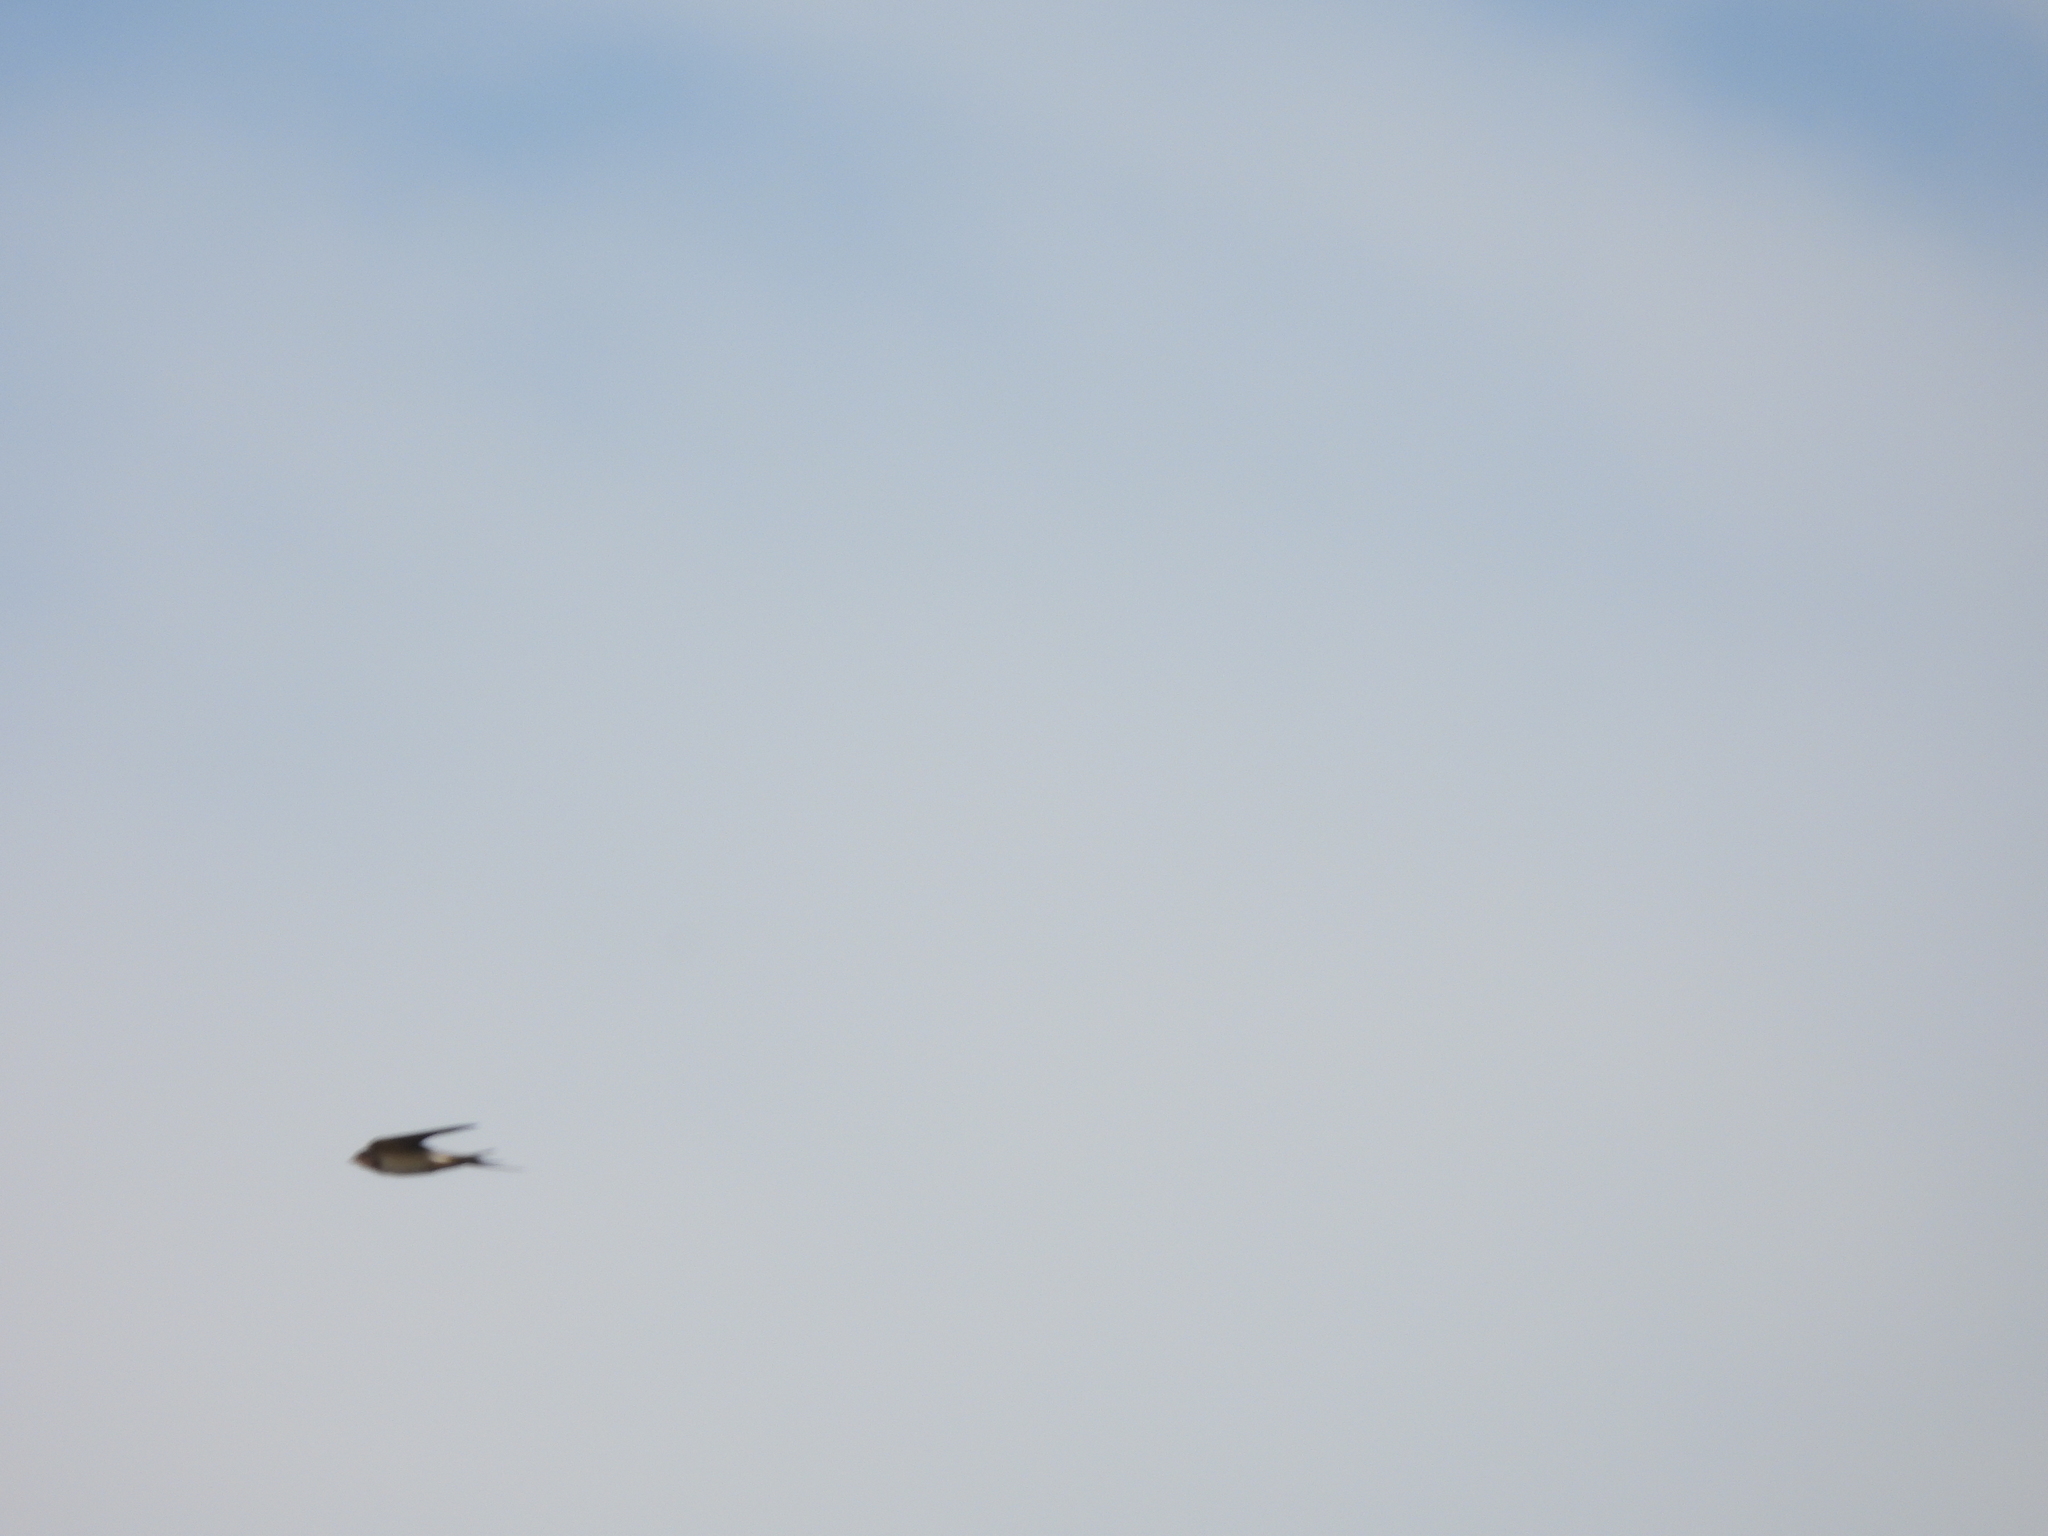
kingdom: Animalia
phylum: Chordata
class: Aves
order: Passeriformes
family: Hirundinidae
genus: Hirundo
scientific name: Hirundo rustica
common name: Barn swallow
